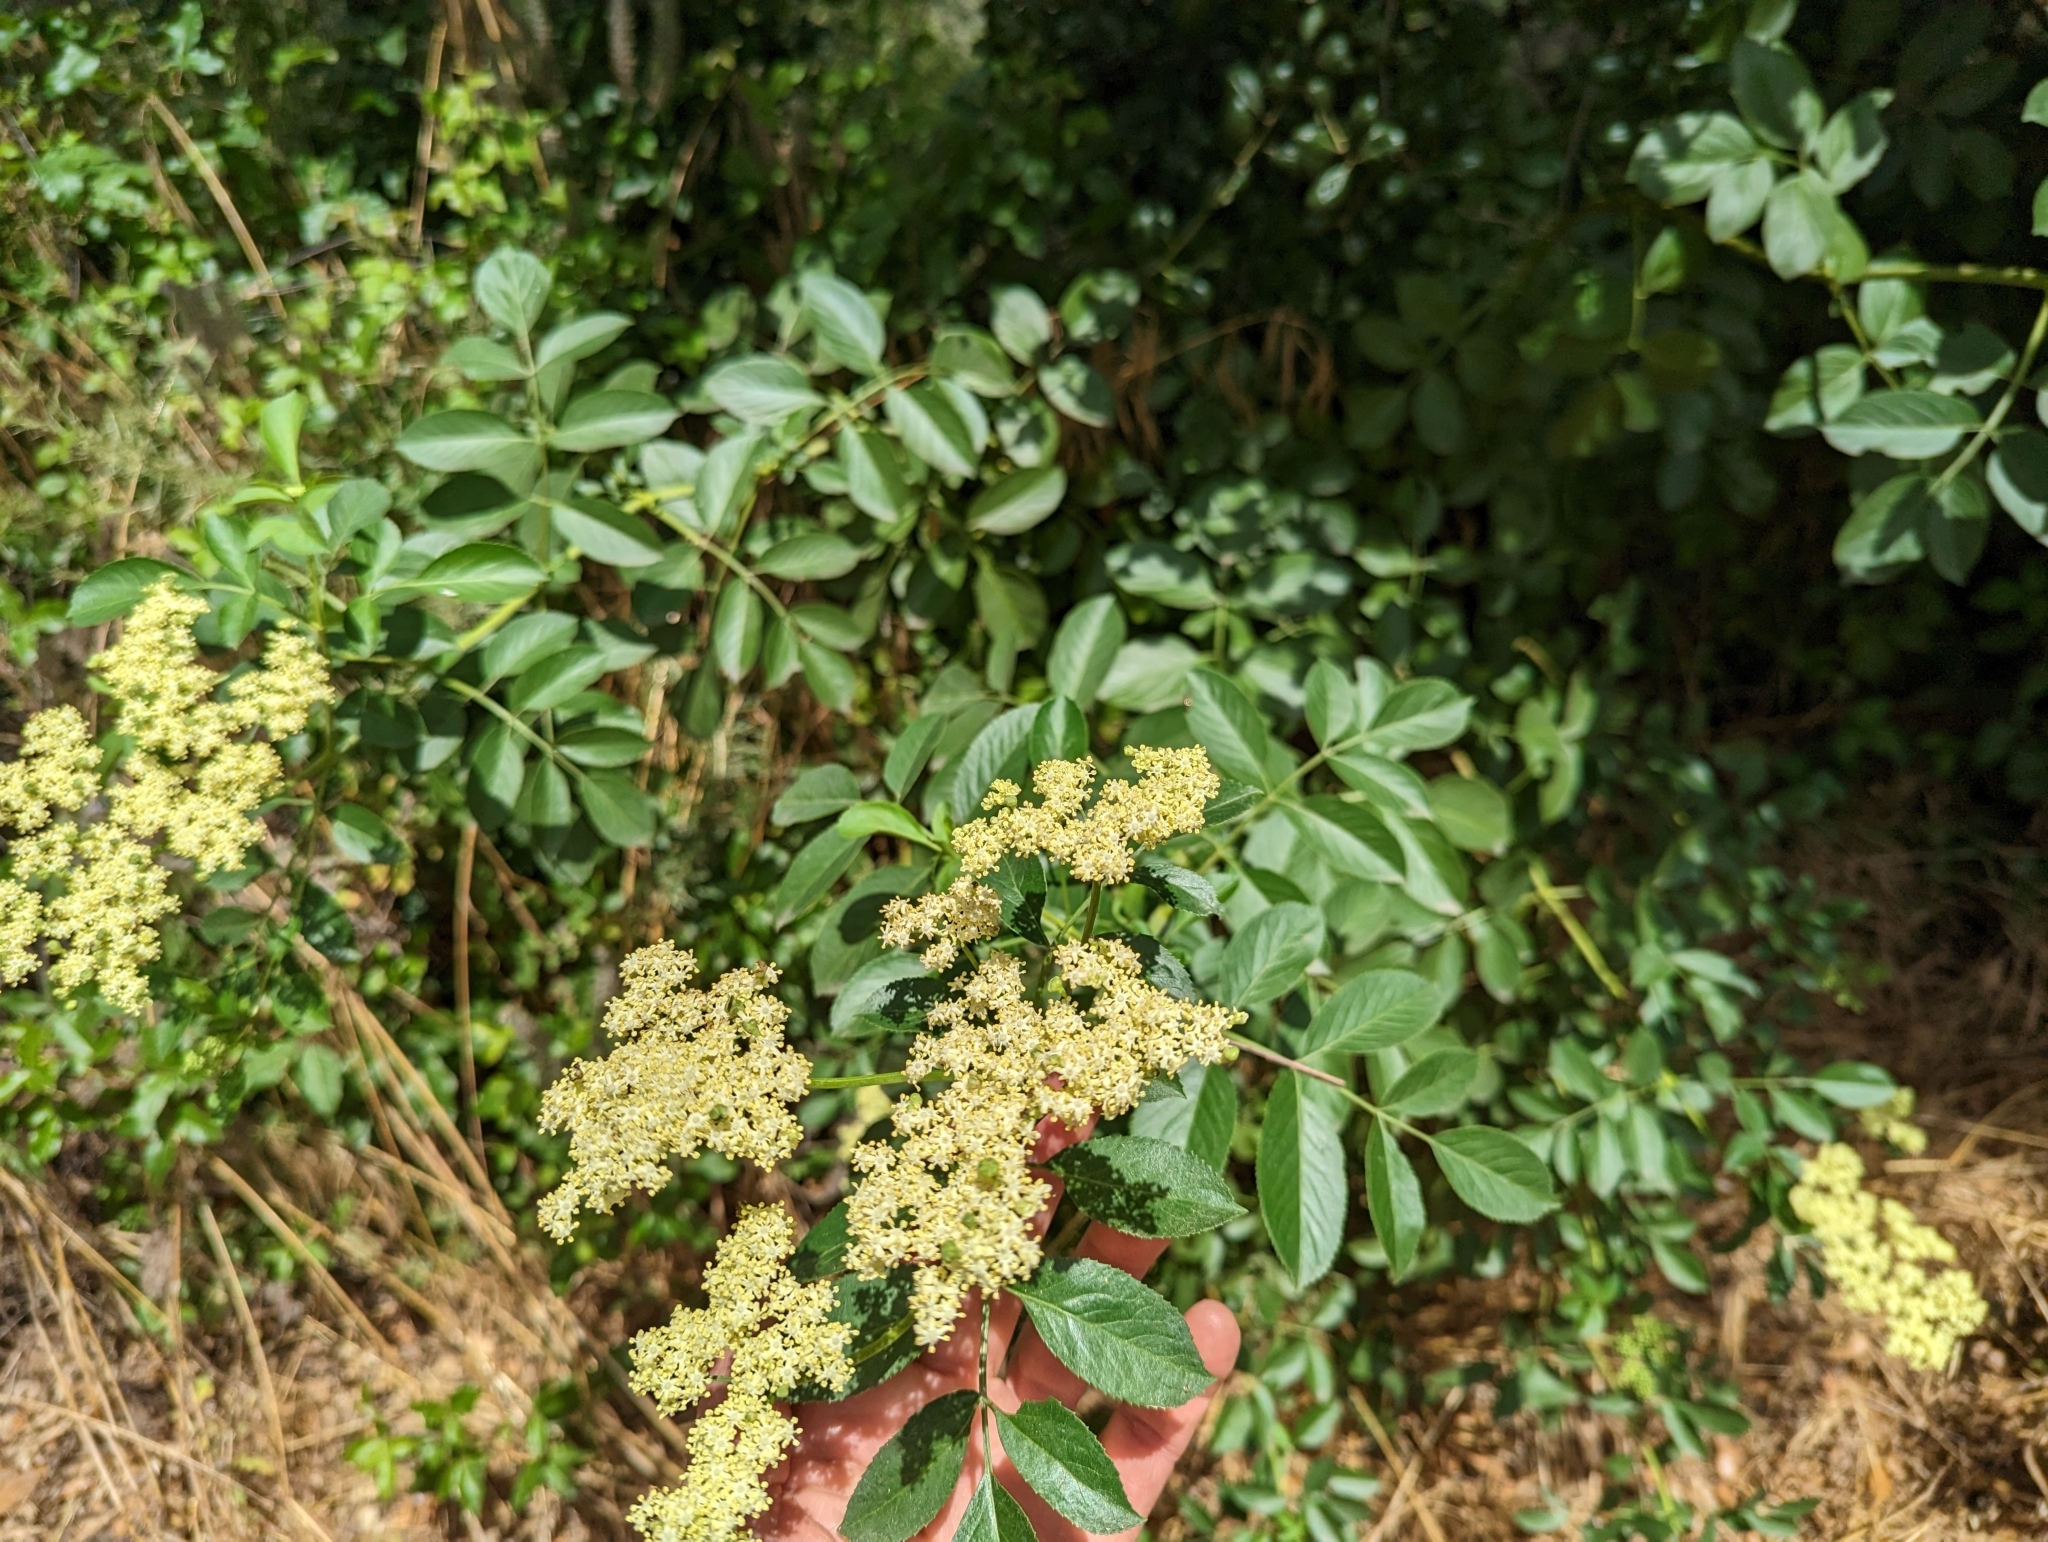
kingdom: Plantae
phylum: Tracheophyta
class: Magnoliopsida
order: Dipsacales
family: Viburnaceae
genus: Sambucus
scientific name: Sambucus cerulea
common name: Blue elder
